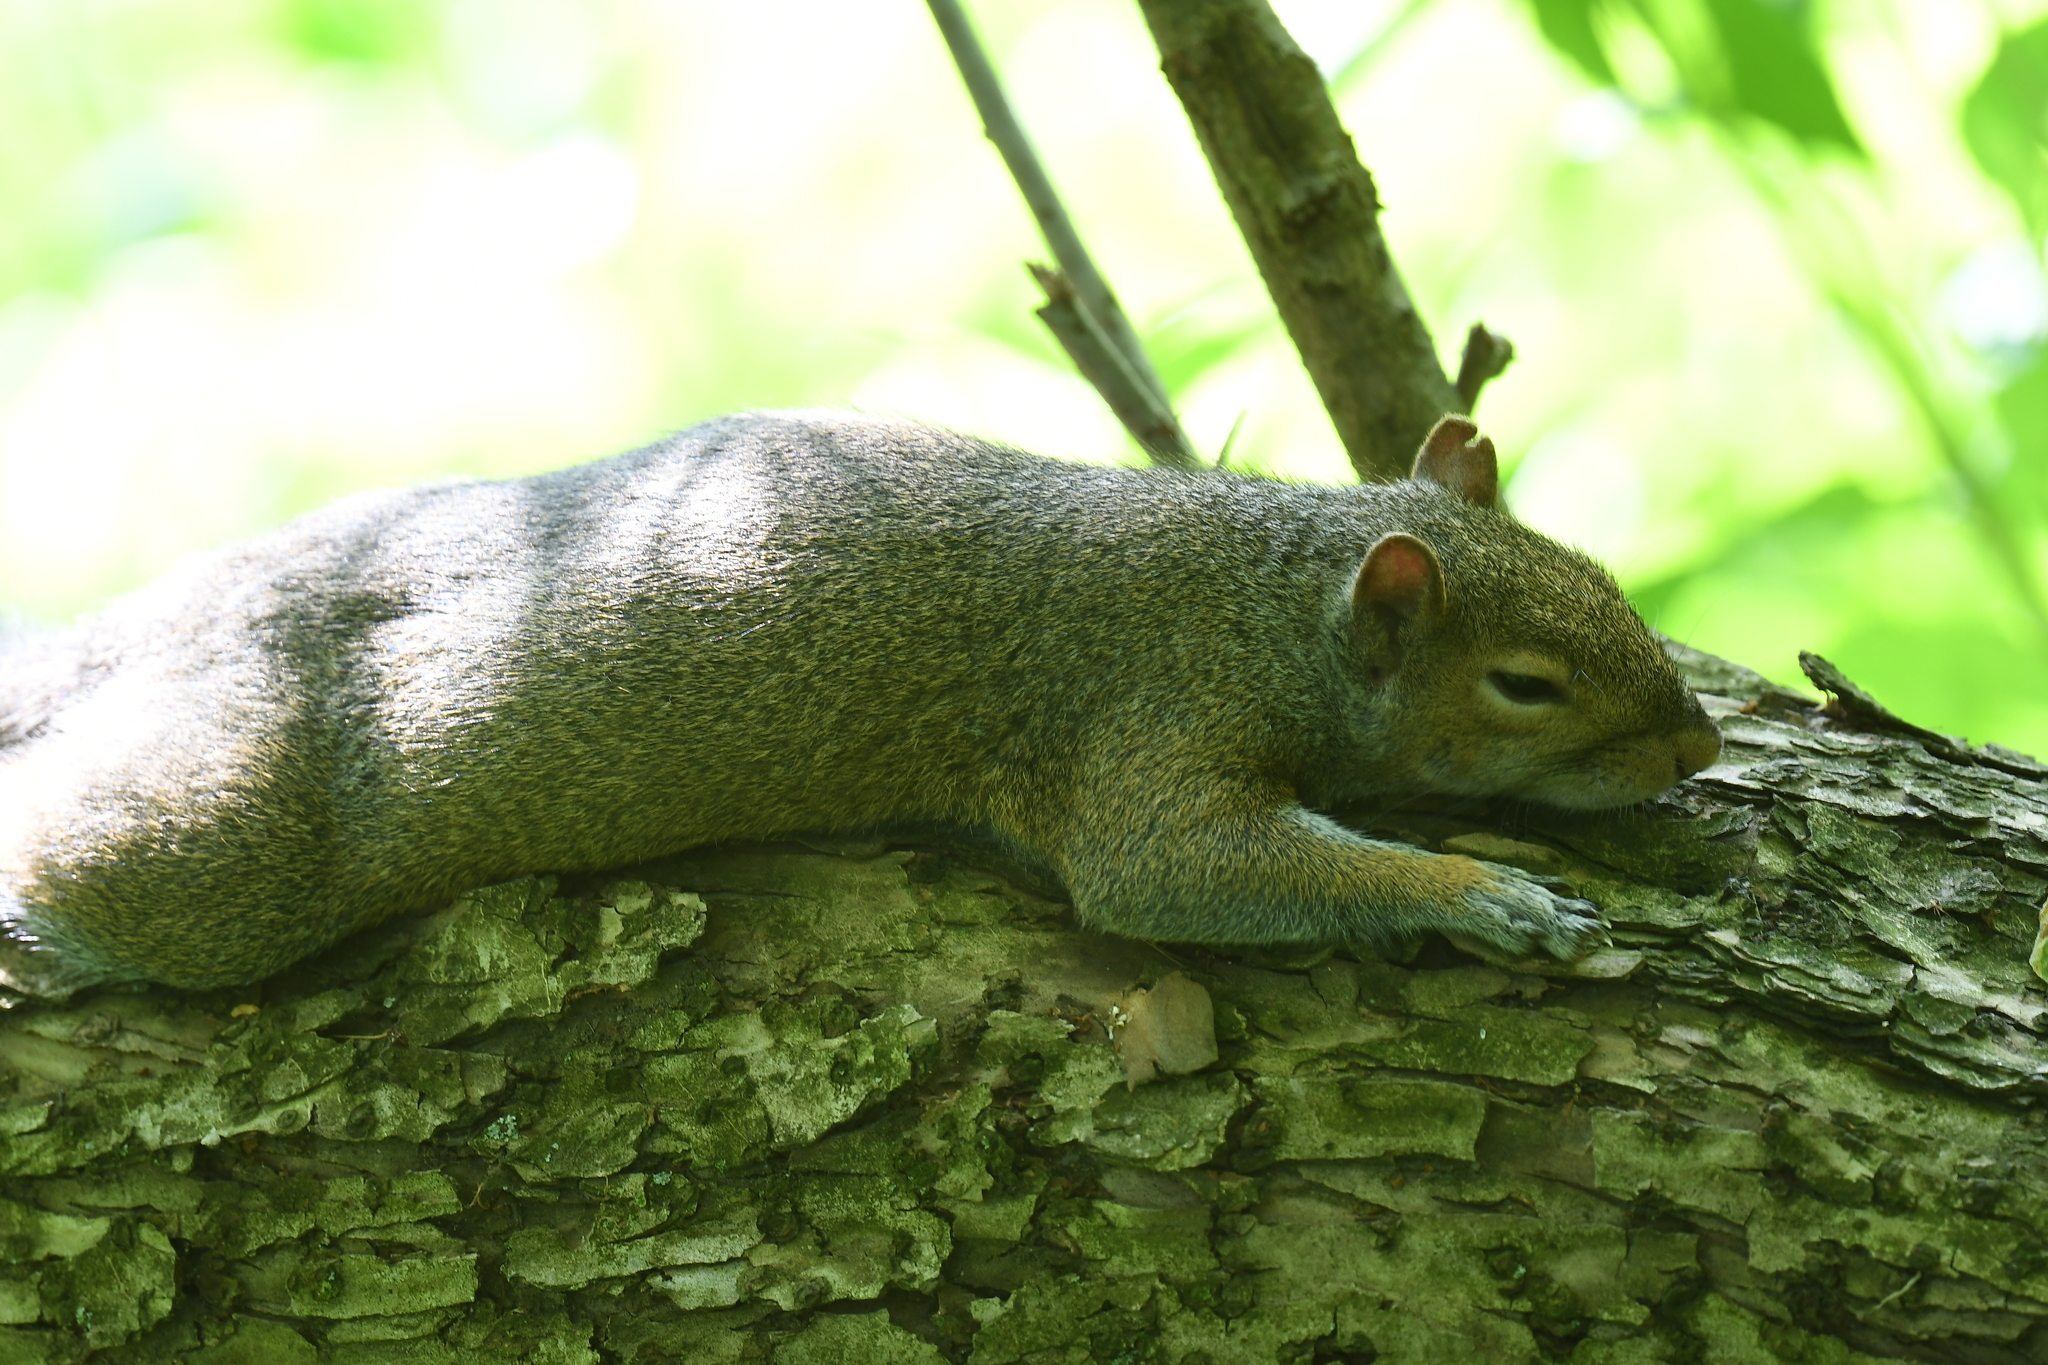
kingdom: Animalia
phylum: Chordata
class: Mammalia
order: Rodentia
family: Sciuridae
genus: Sciurus
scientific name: Sciurus carolinensis
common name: Eastern gray squirrel
